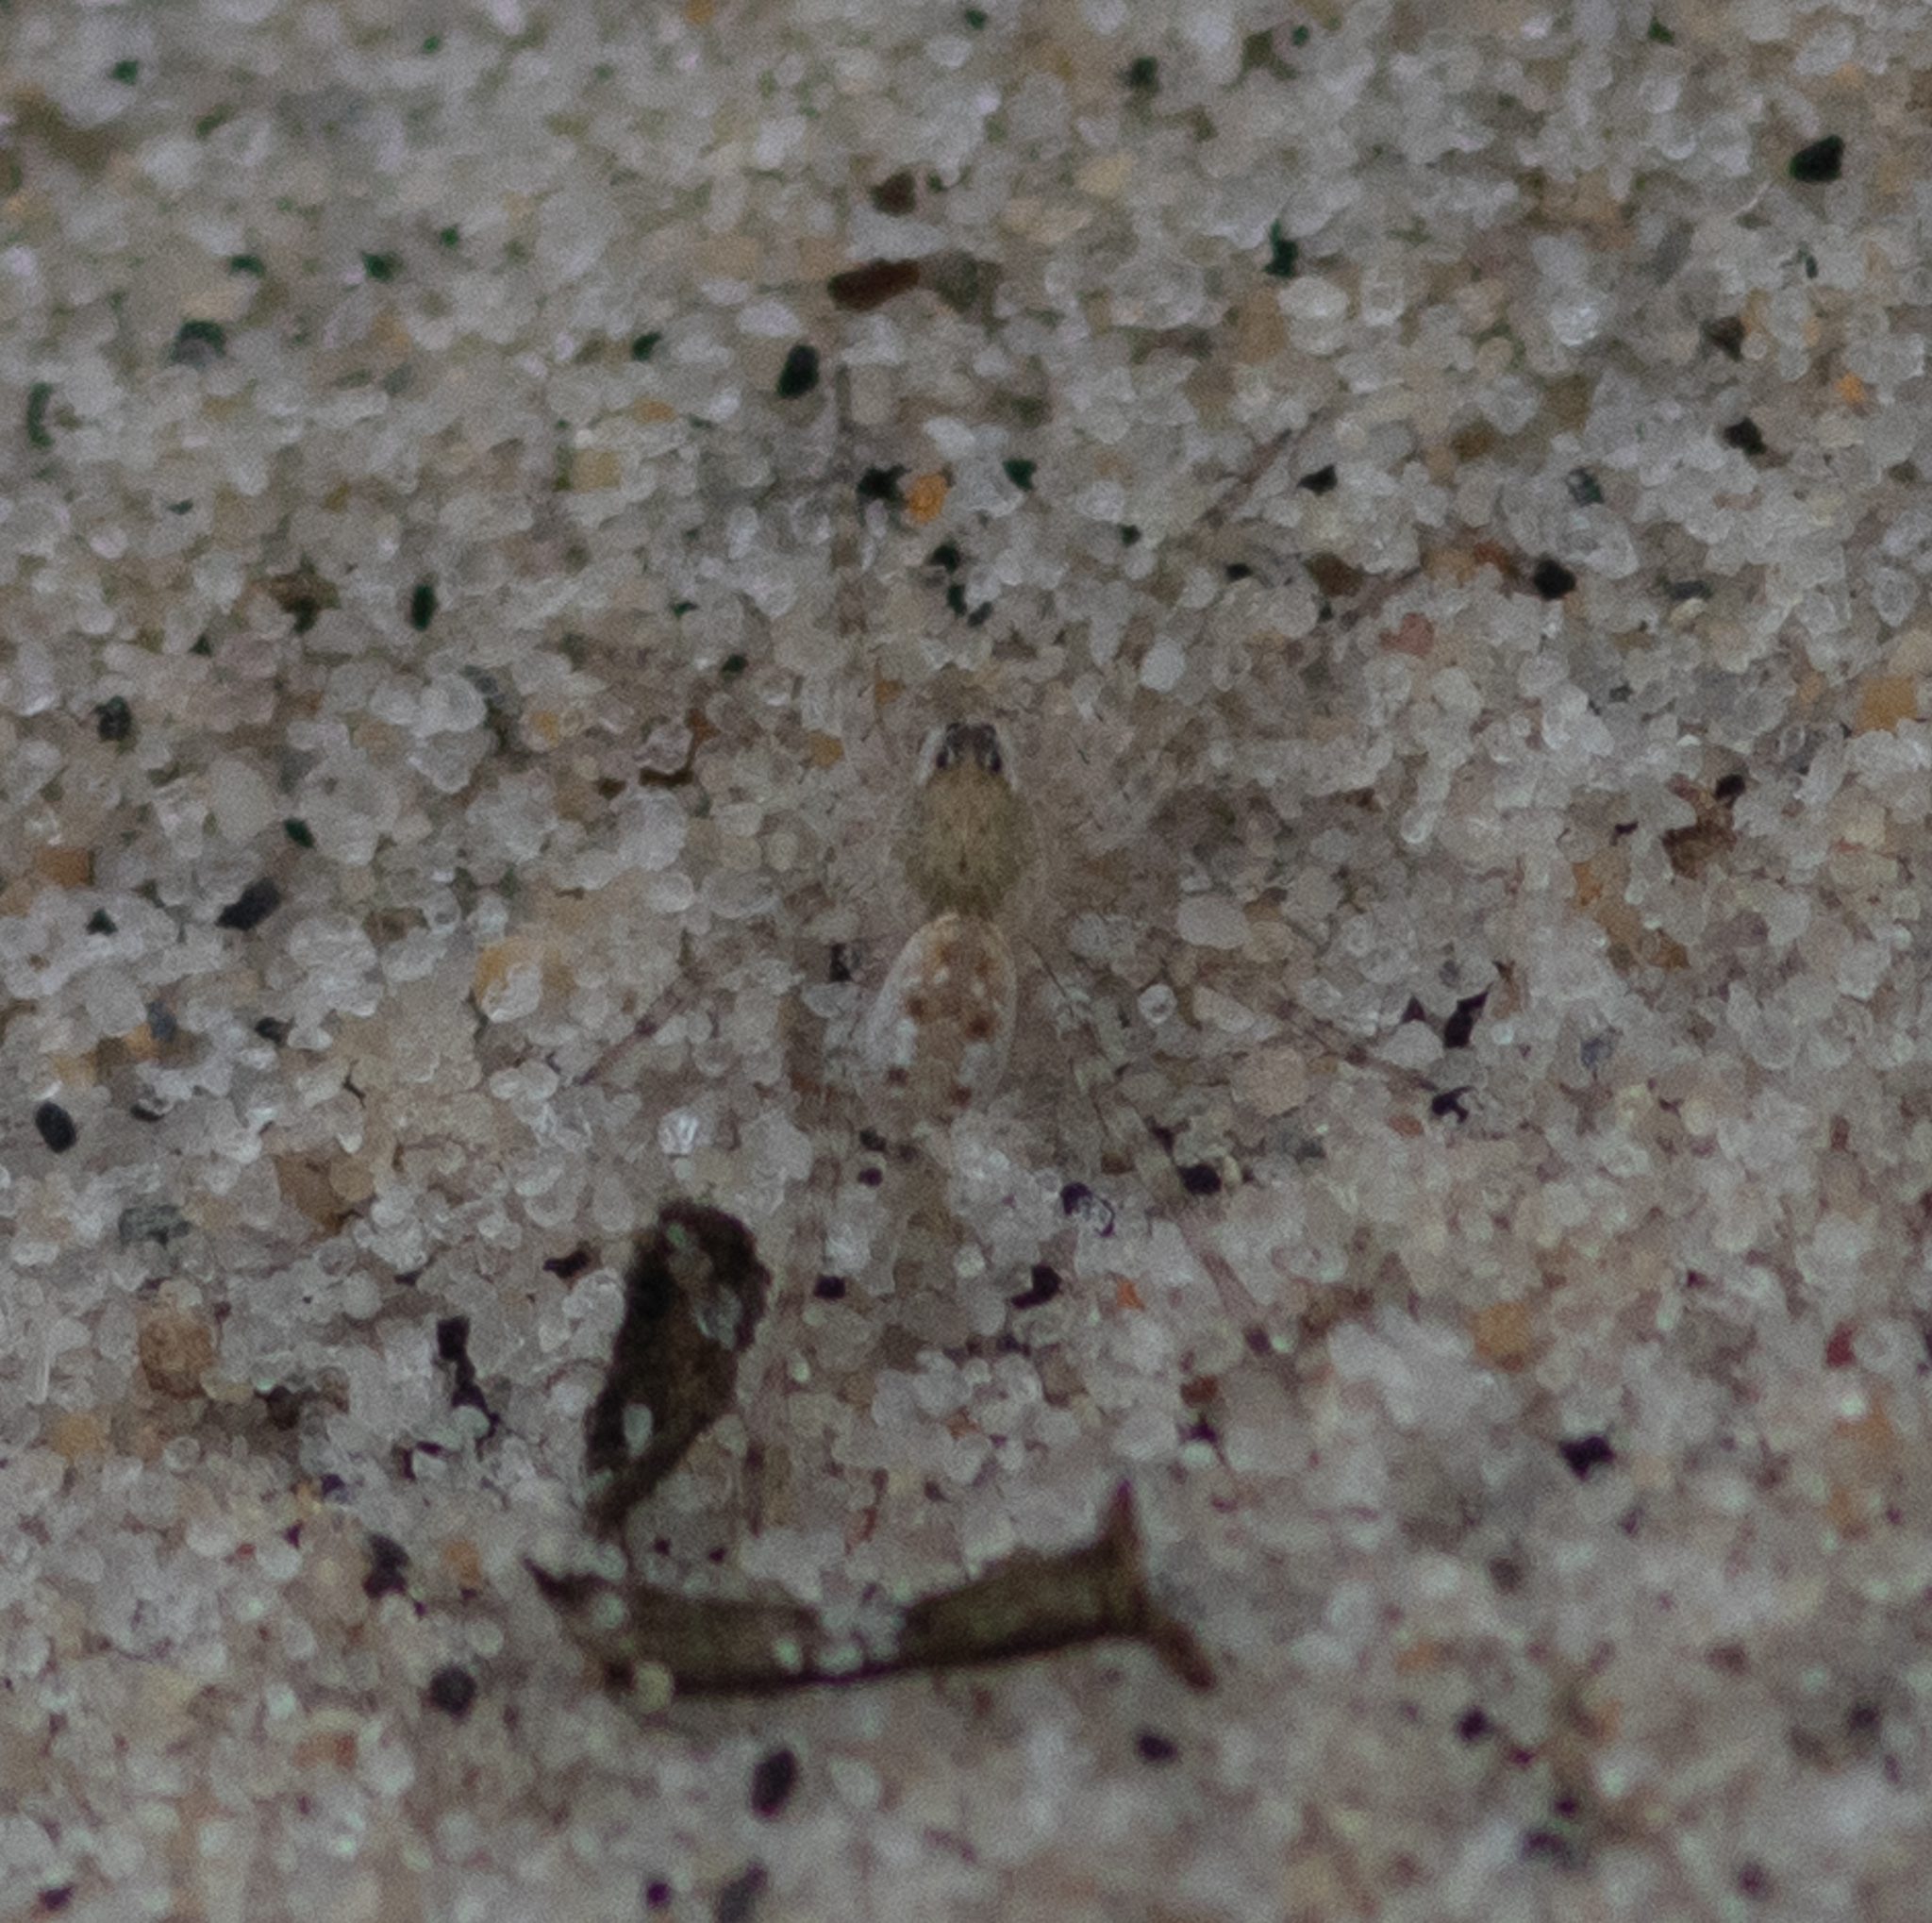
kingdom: Animalia
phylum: Arthropoda
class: Arachnida
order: Araneae
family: Lycosidae
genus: Arctosa
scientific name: Arctosa littoralis
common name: Wolf spiders
